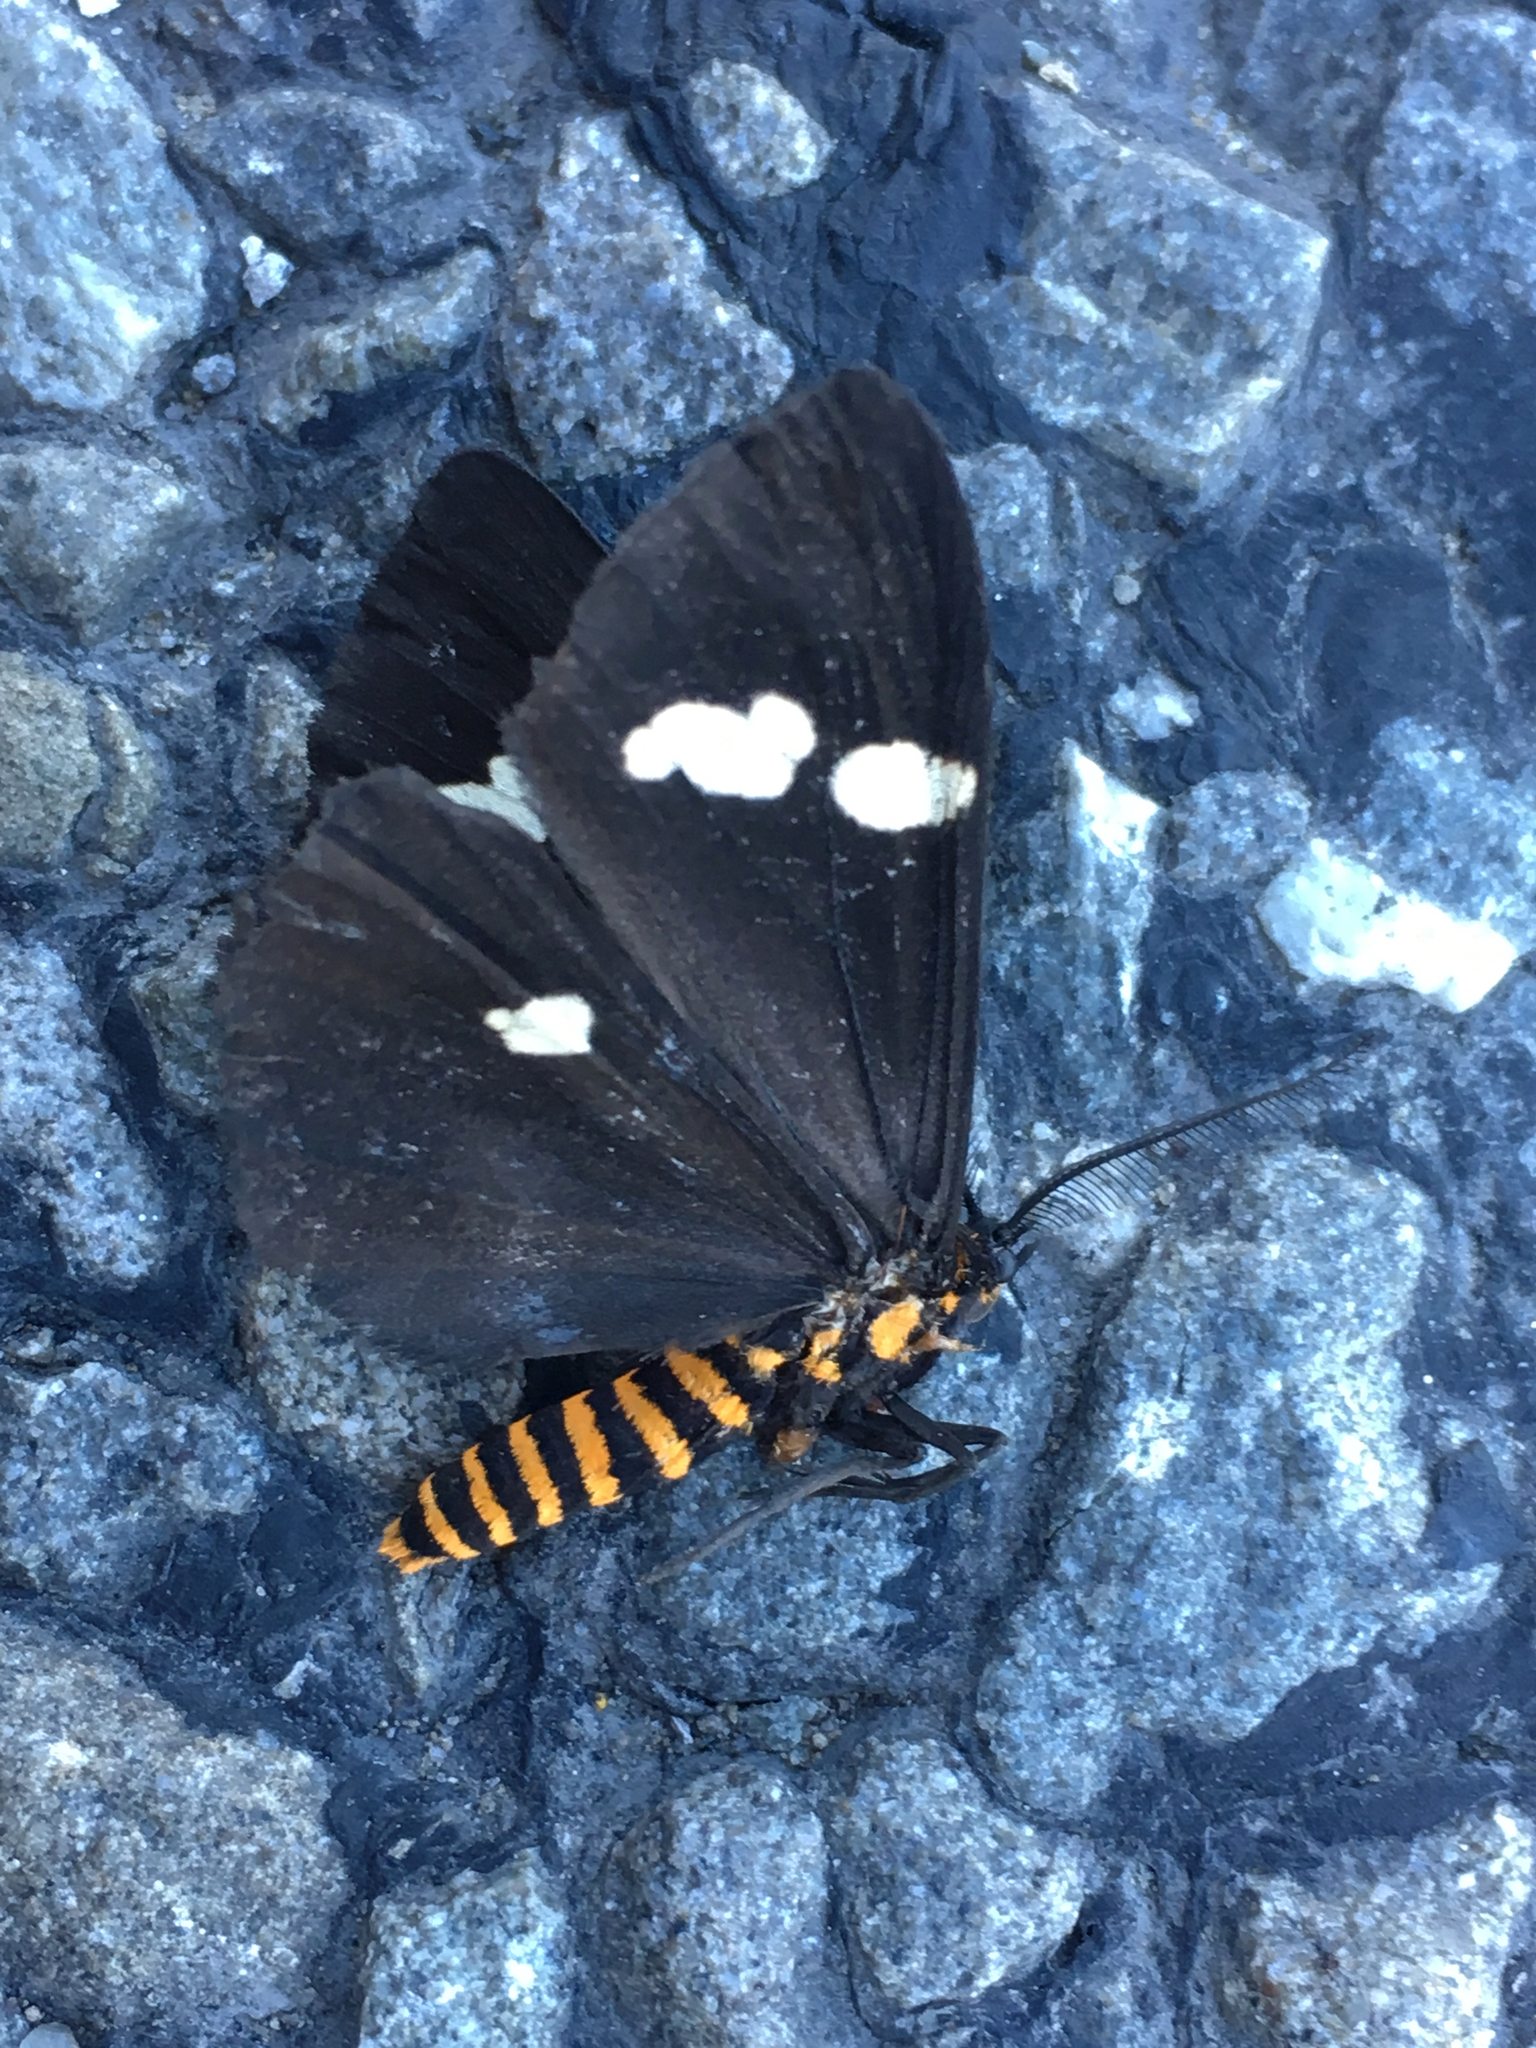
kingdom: Animalia
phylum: Arthropoda
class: Insecta
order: Lepidoptera
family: Erebidae
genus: Nyctemera
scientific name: Nyctemera annulatum
